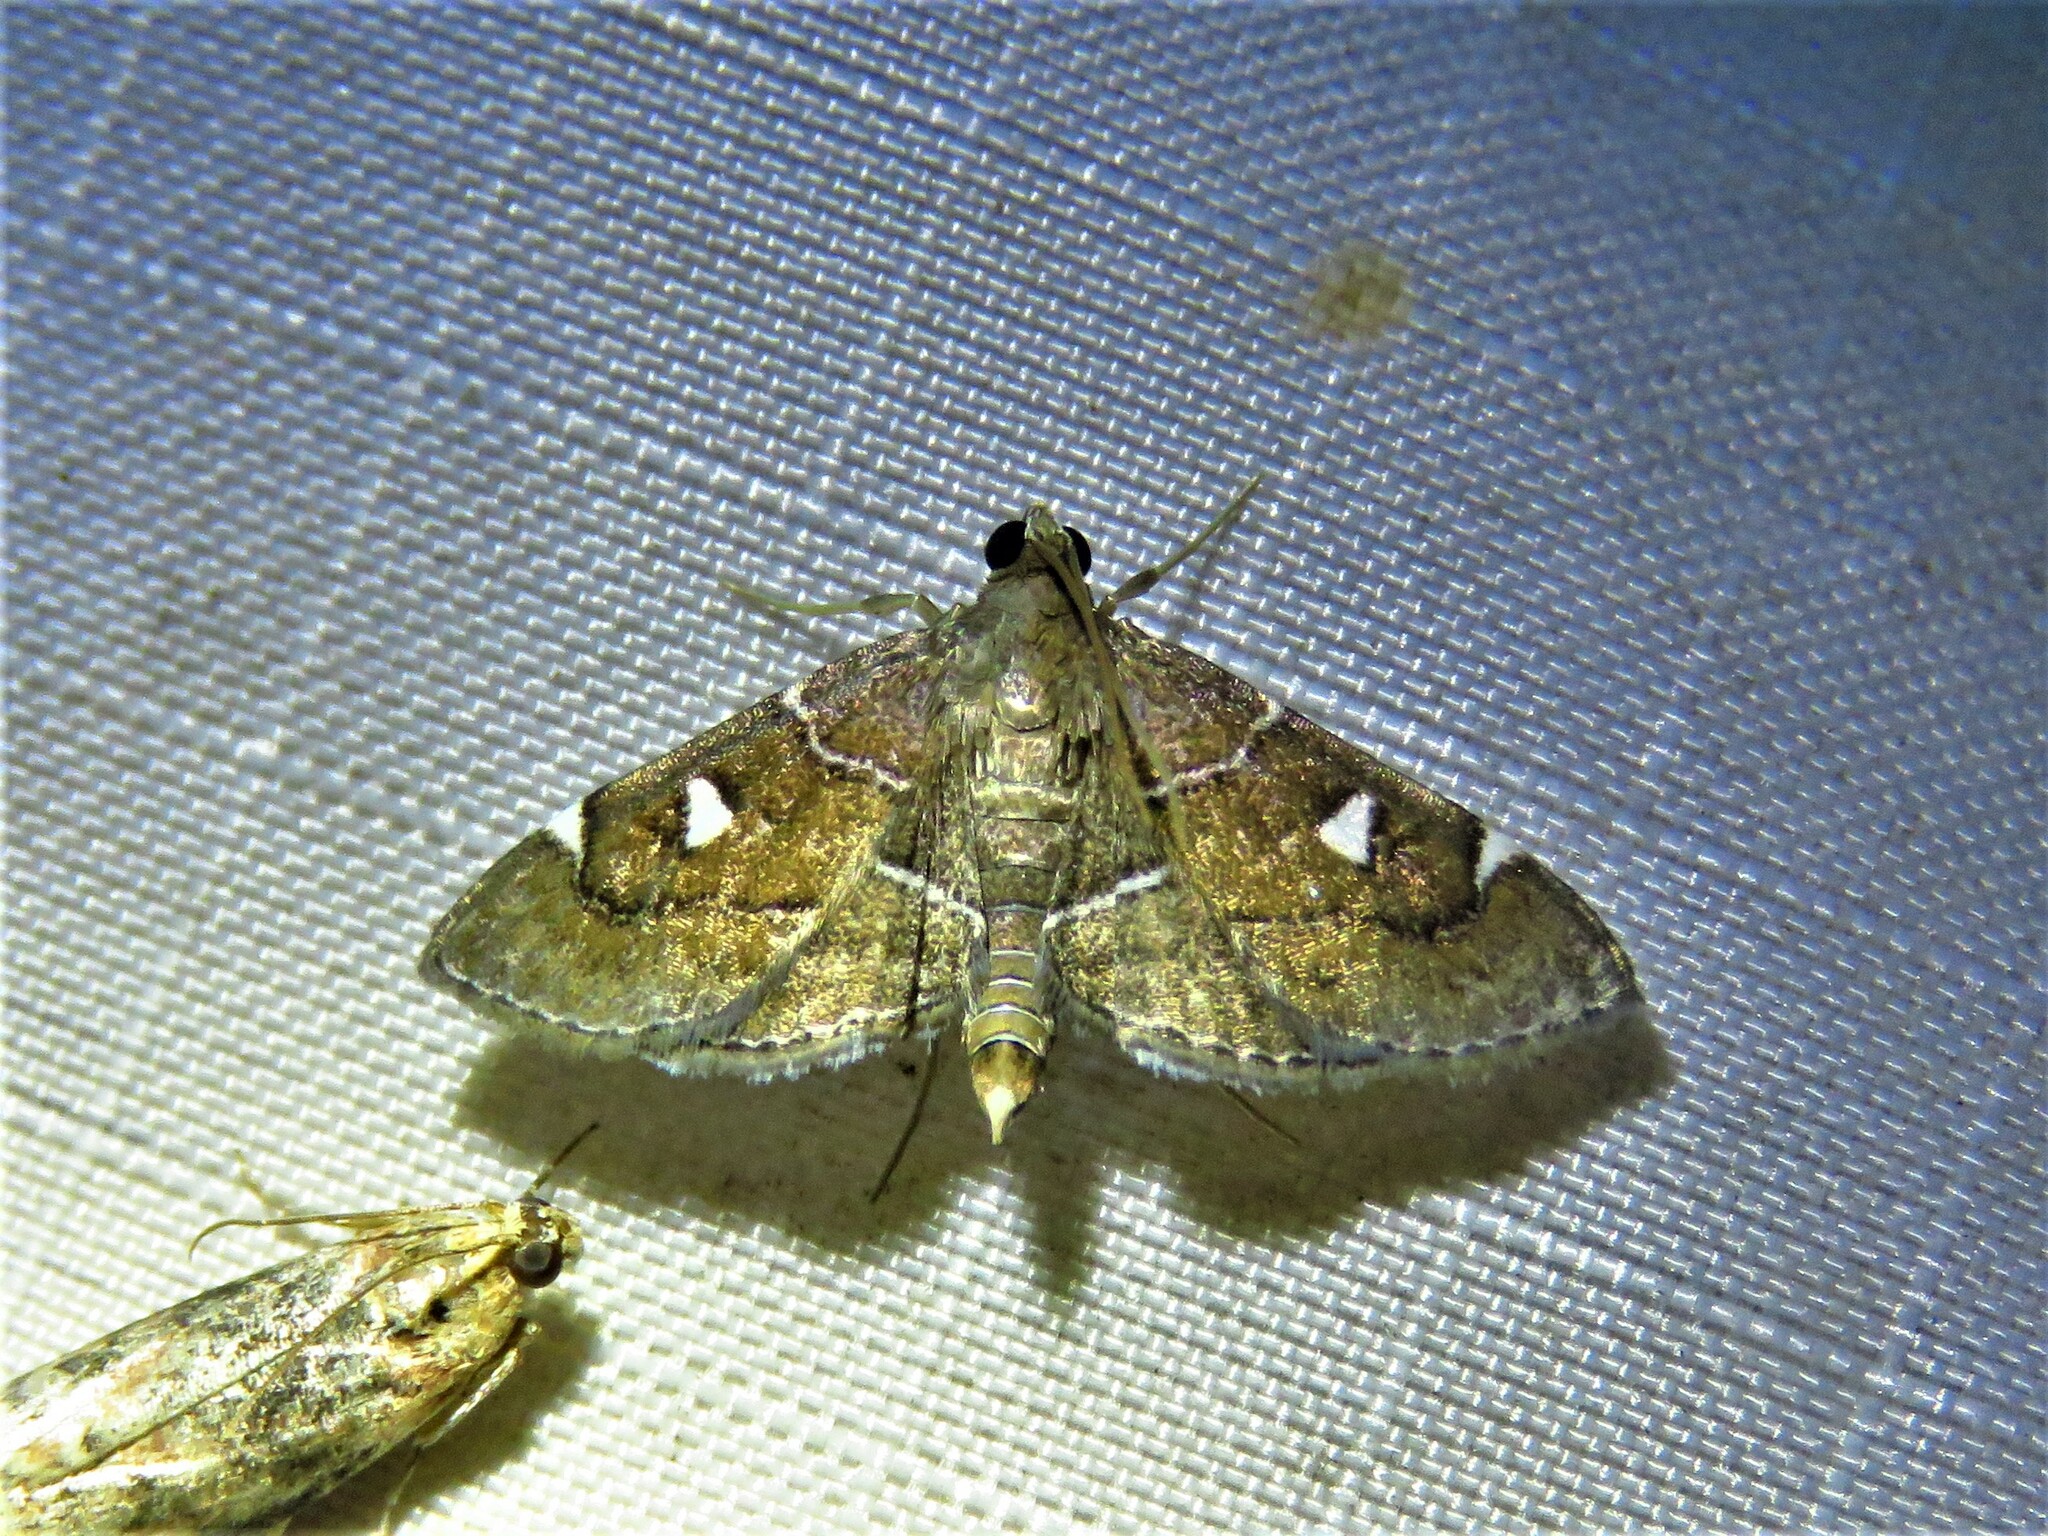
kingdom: Animalia
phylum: Arthropoda
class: Insecta
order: Lepidoptera
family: Crambidae
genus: Lamprosema
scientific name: Lamprosema victoriae
